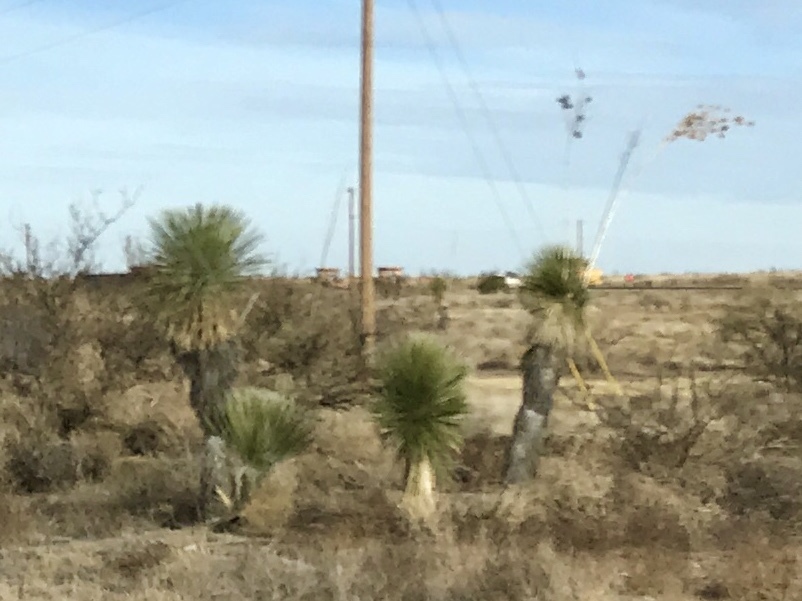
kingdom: Plantae
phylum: Tracheophyta
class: Liliopsida
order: Asparagales
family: Asparagaceae
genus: Yucca
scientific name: Yucca elata
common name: Palmella
